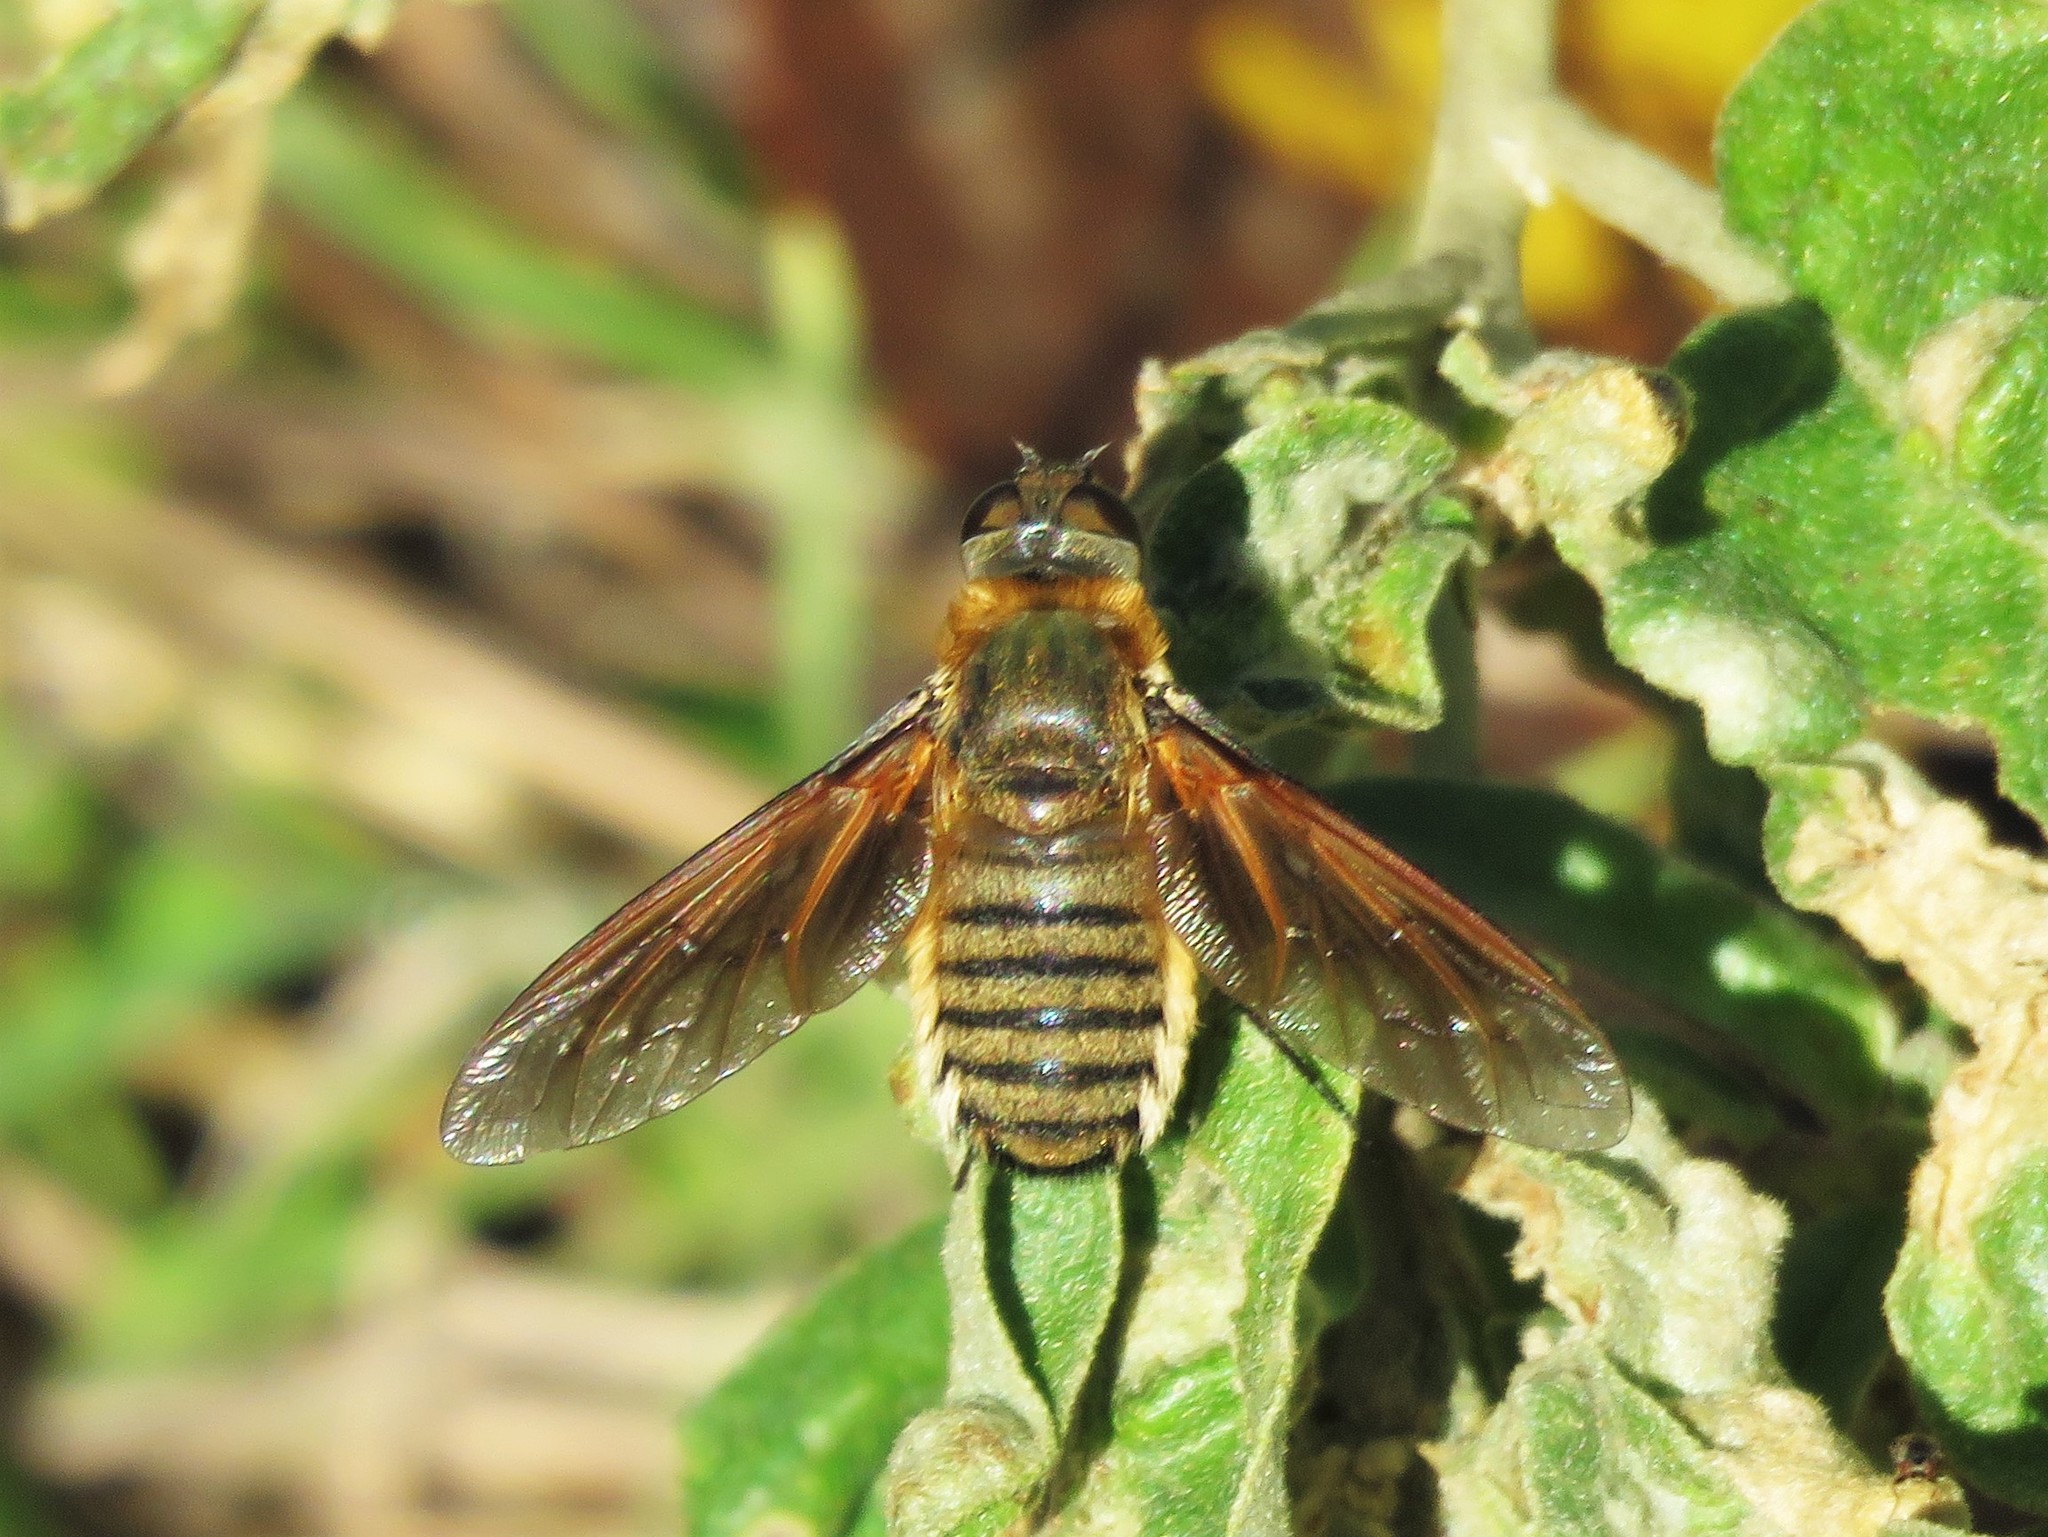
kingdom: Animalia
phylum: Arthropoda
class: Insecta
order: Diptera
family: Bombyliidae
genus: Poecilanthrax
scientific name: Poecilanthrax lucifer
